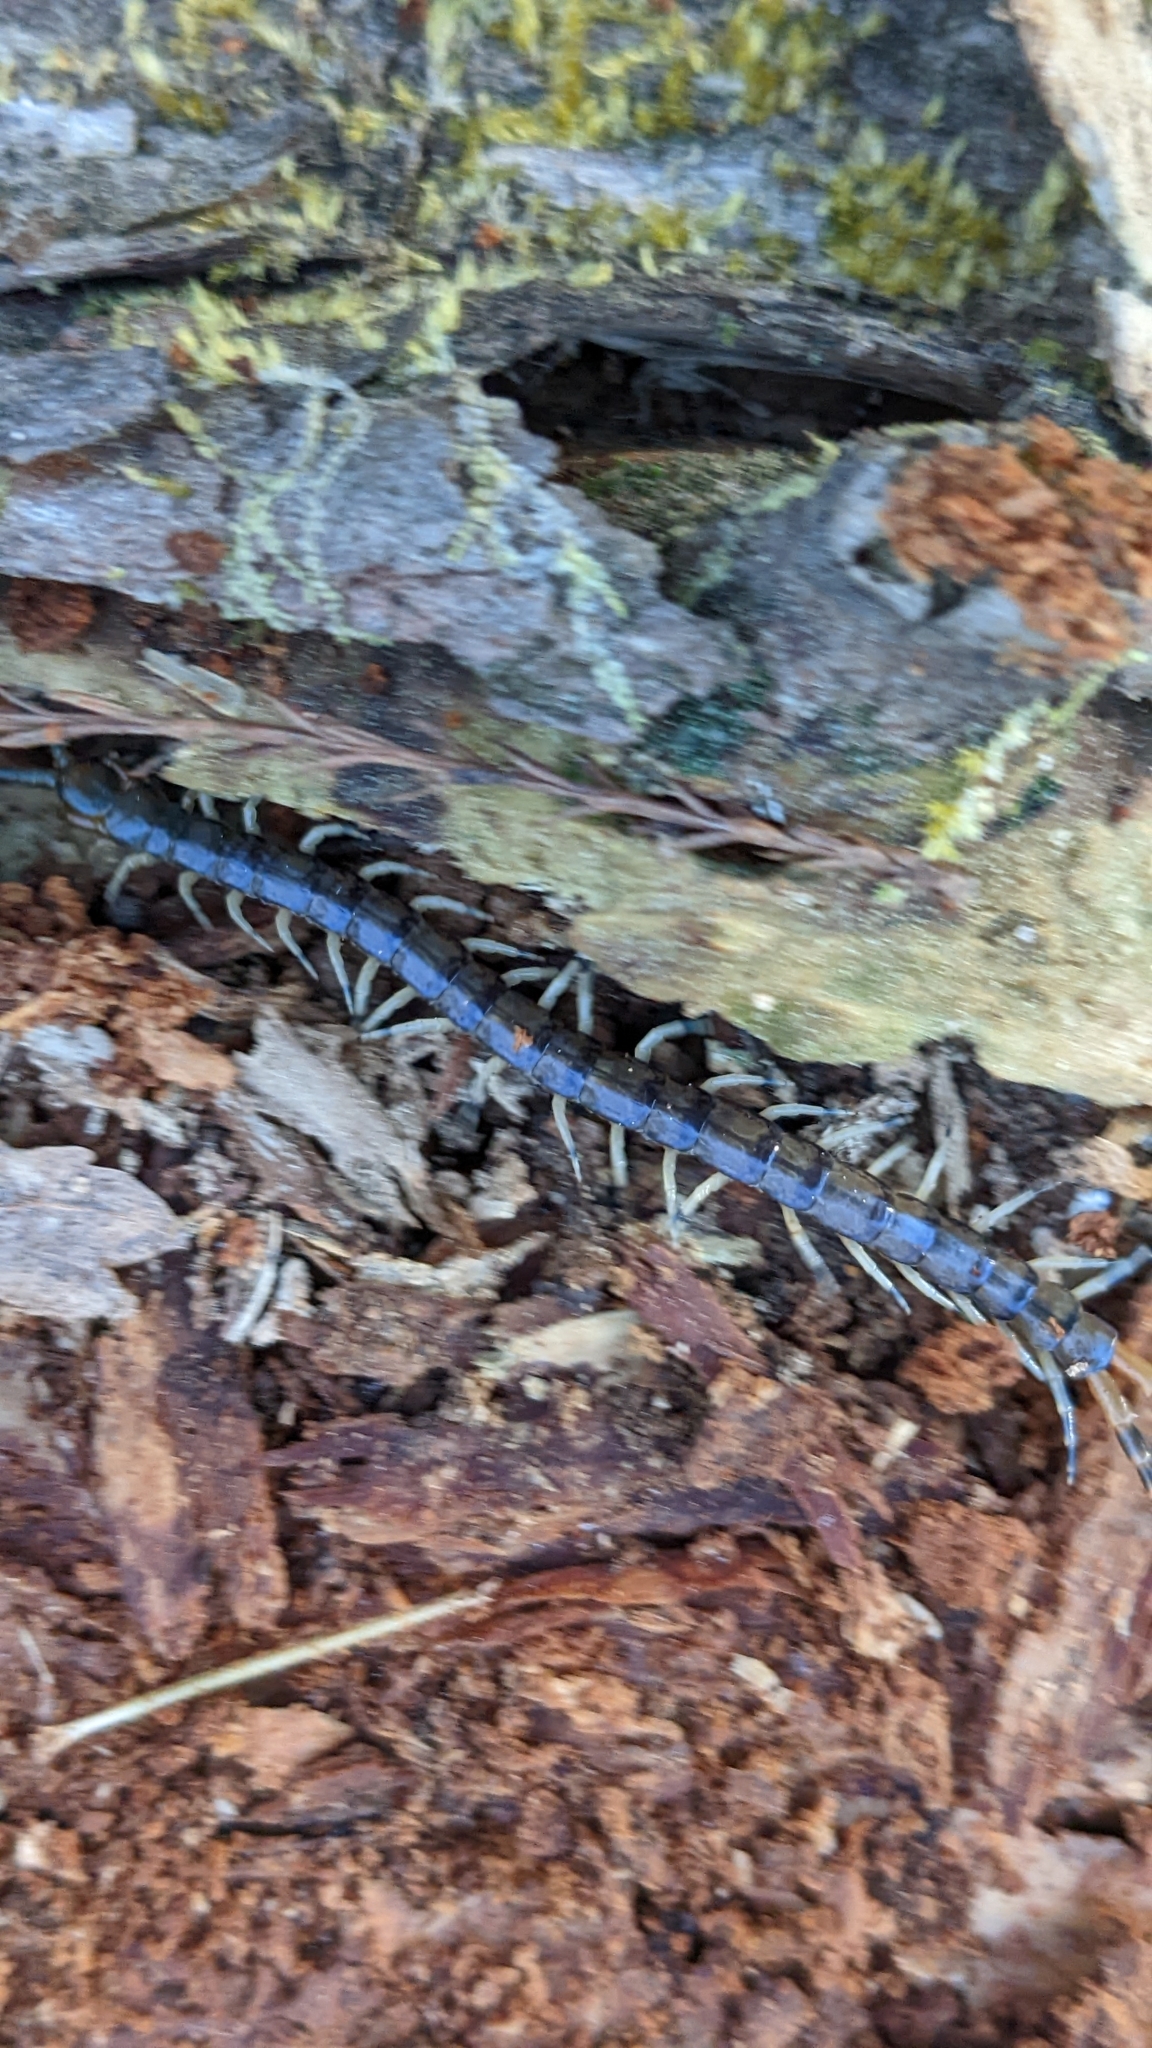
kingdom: Animalia
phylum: Arthropoda
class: Chilopoda
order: Scolopendromorpha
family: Scolopendridae
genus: Hemiscolopendra
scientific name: Hemiscolopendra marginata
